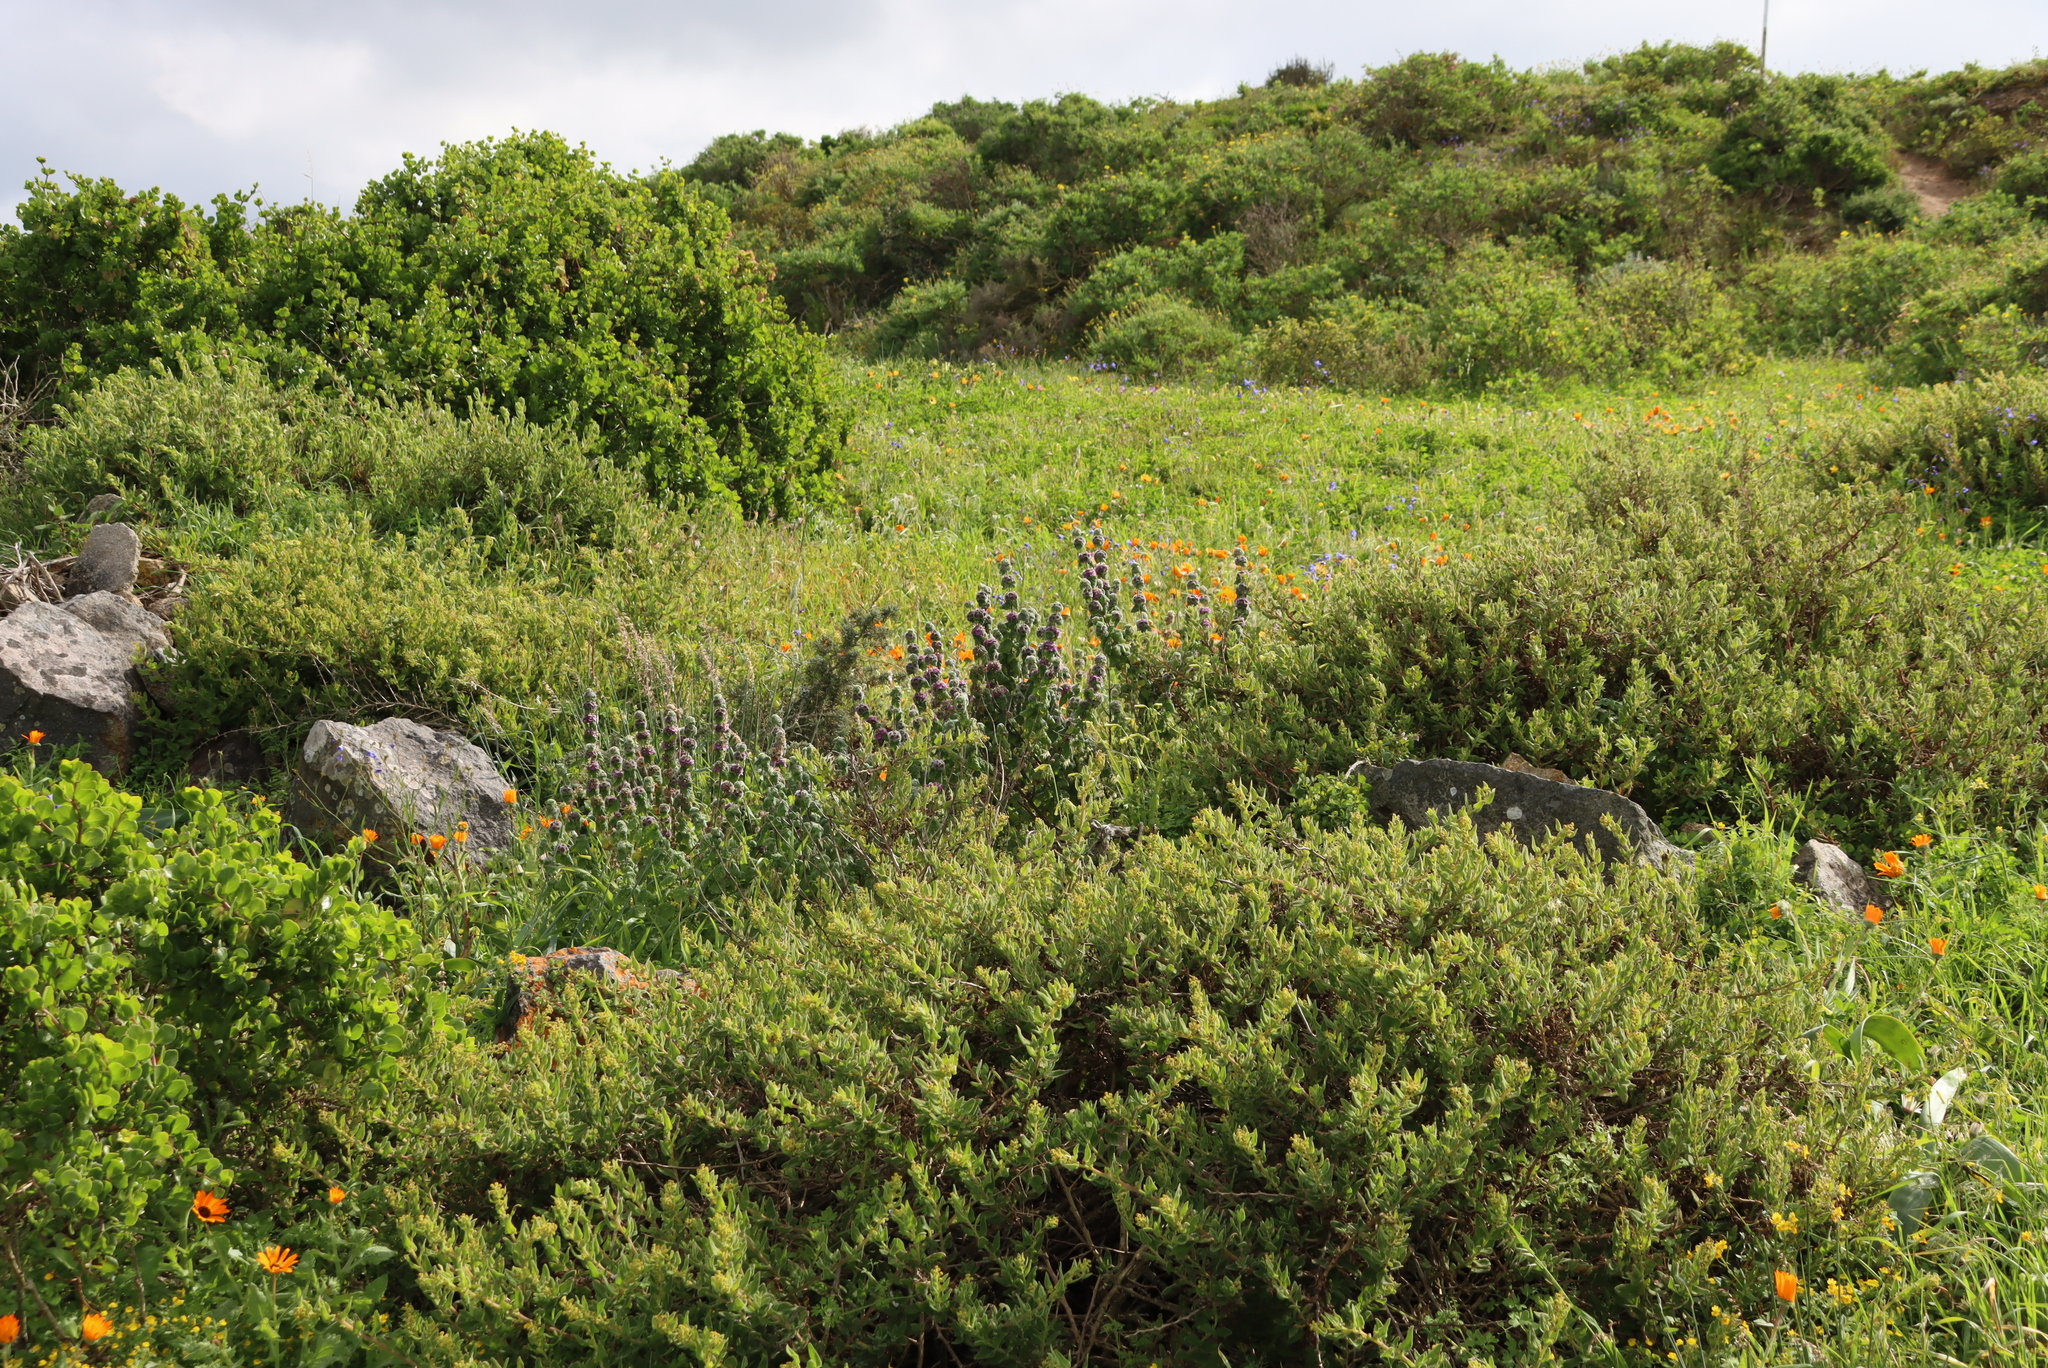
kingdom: Plantae
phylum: Tracheophyta
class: Magnoliopsida
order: Lamiales
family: Lamiaceae
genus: Pseudodictamnus
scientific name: Pseudodictamnus africanus
